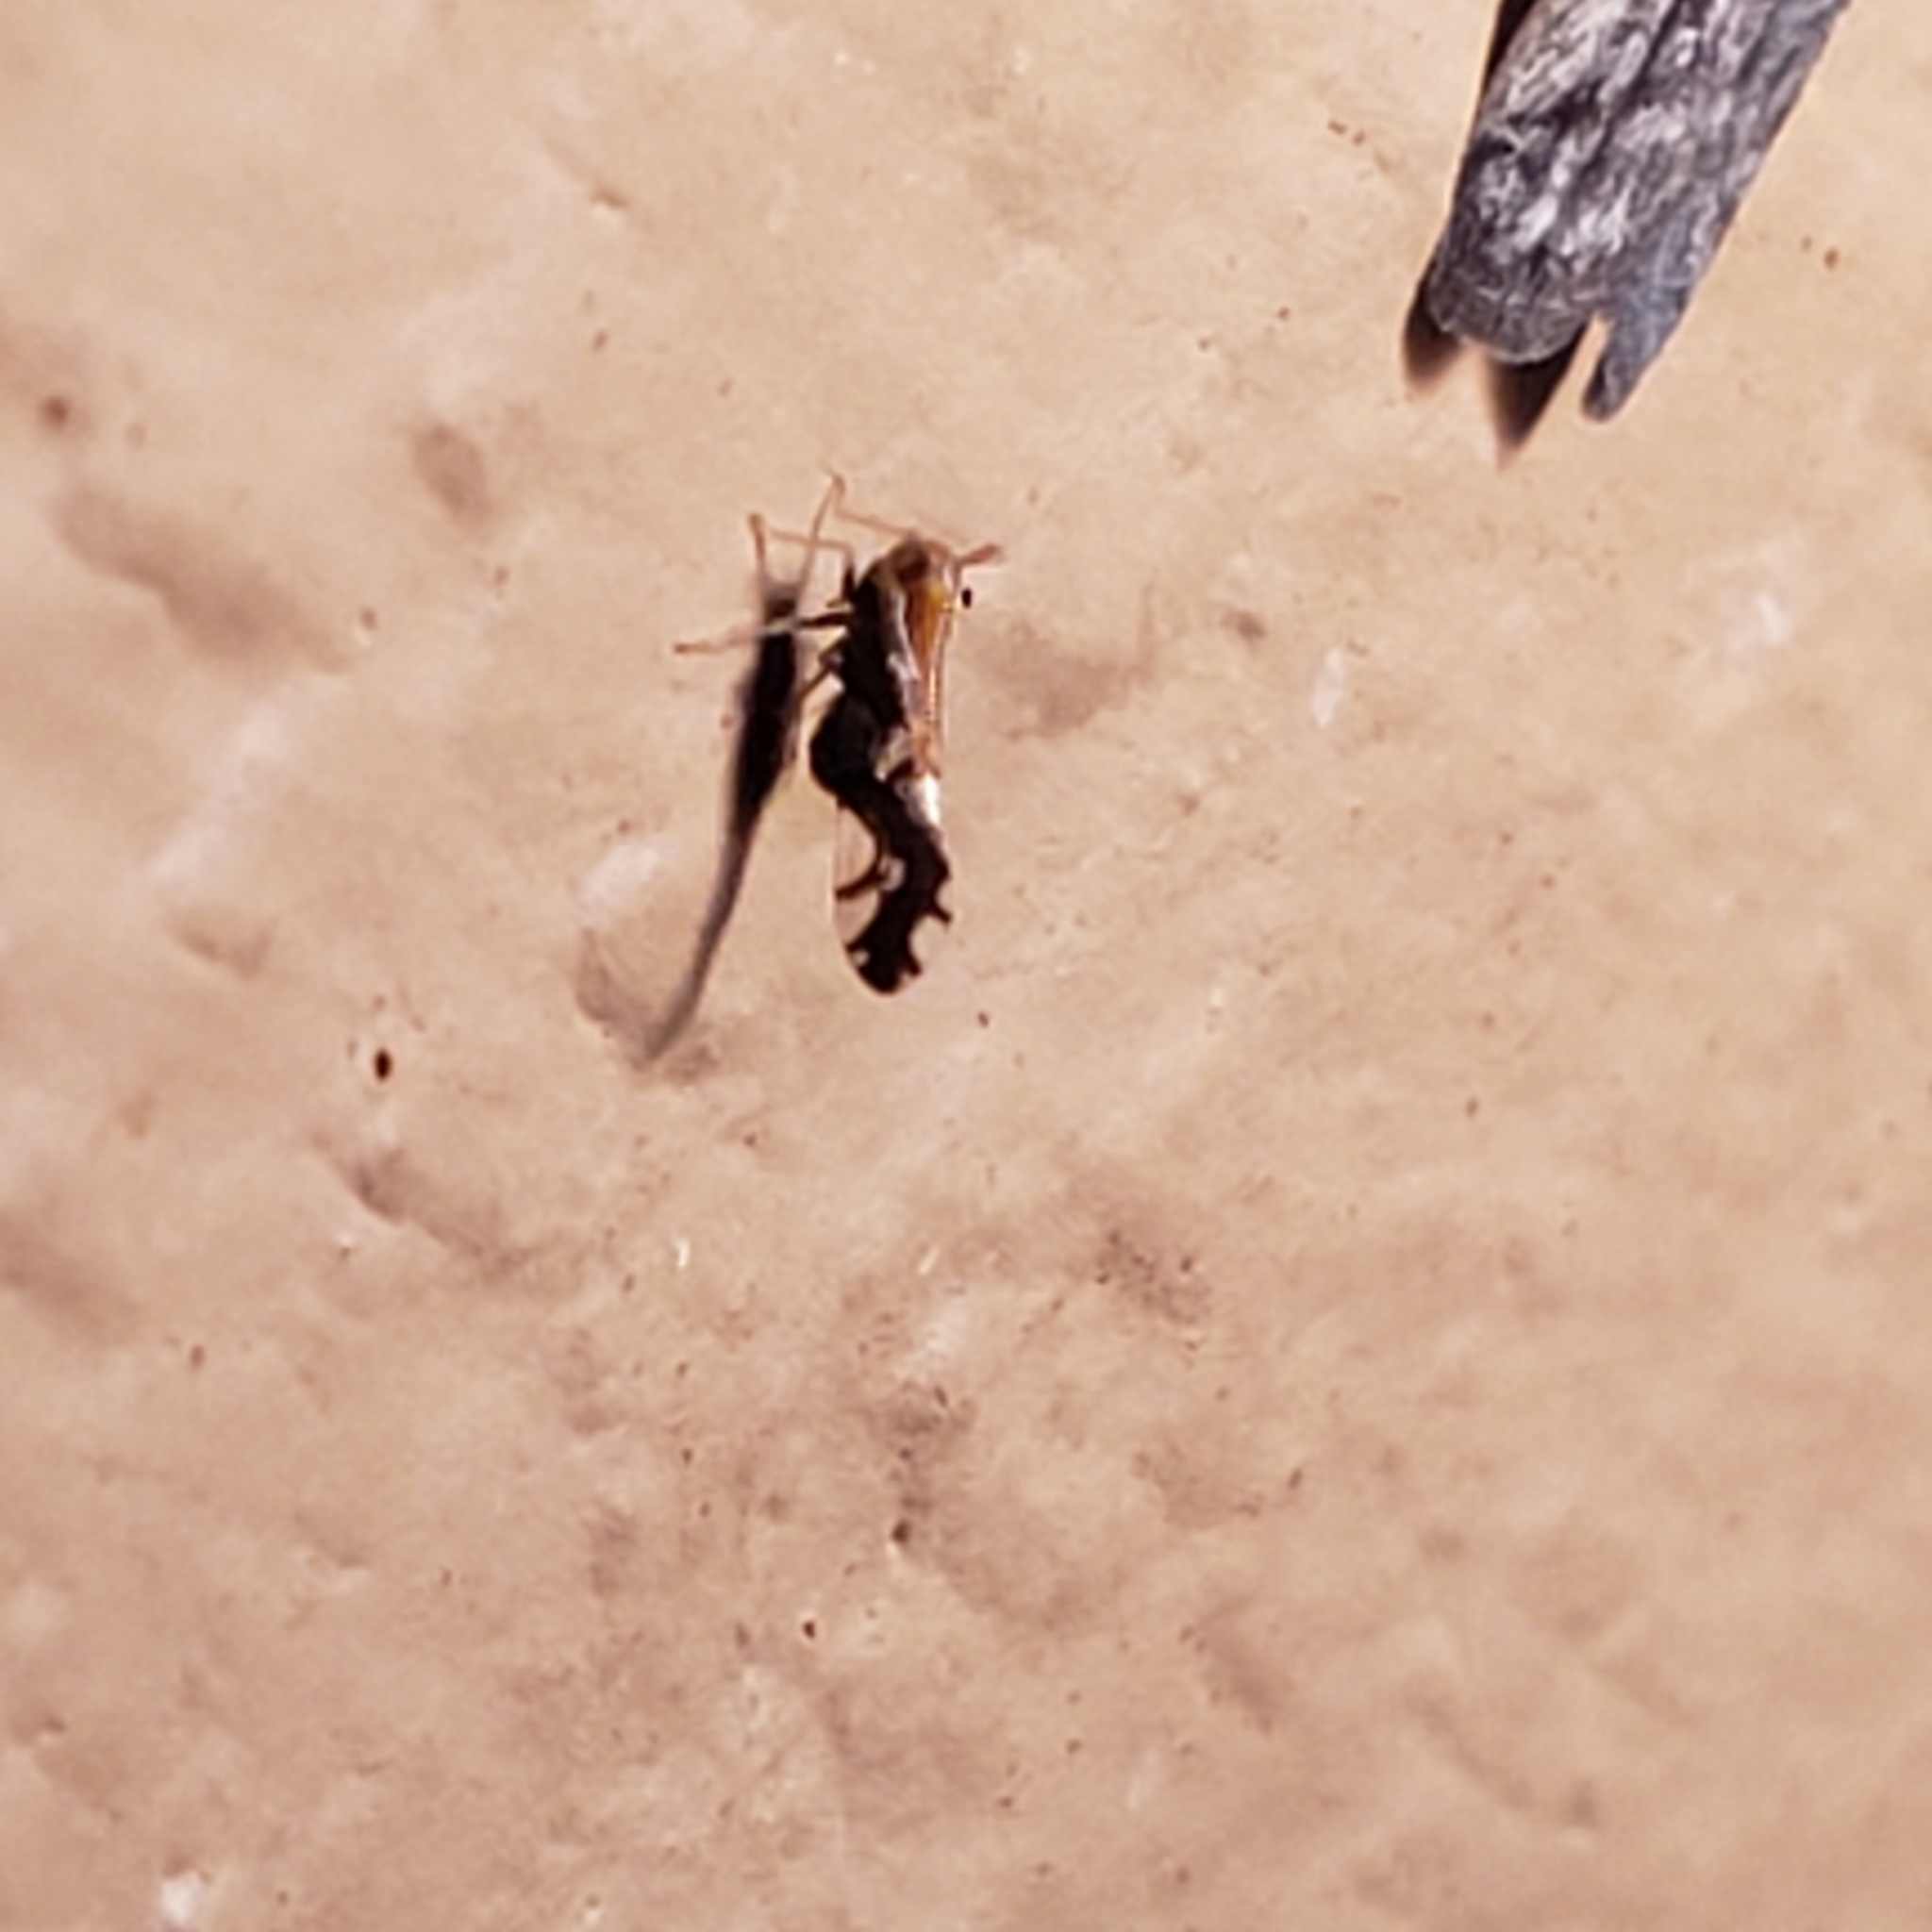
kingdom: Animalia
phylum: Arthropoda
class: Insecta
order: Hemiptera
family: Delphacidae
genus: Liburniella
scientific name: Liburniella ornata
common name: Ornate planthopper
